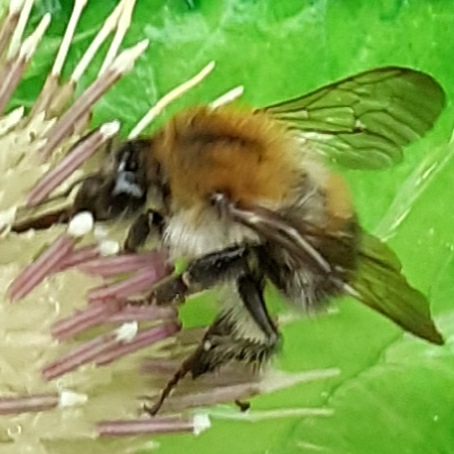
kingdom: Animalia
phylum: Arthropoda
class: Insecta
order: Hymenoptera
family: Apidae
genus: Bombus
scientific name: Bombus pascuorum
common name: Common carder bee
